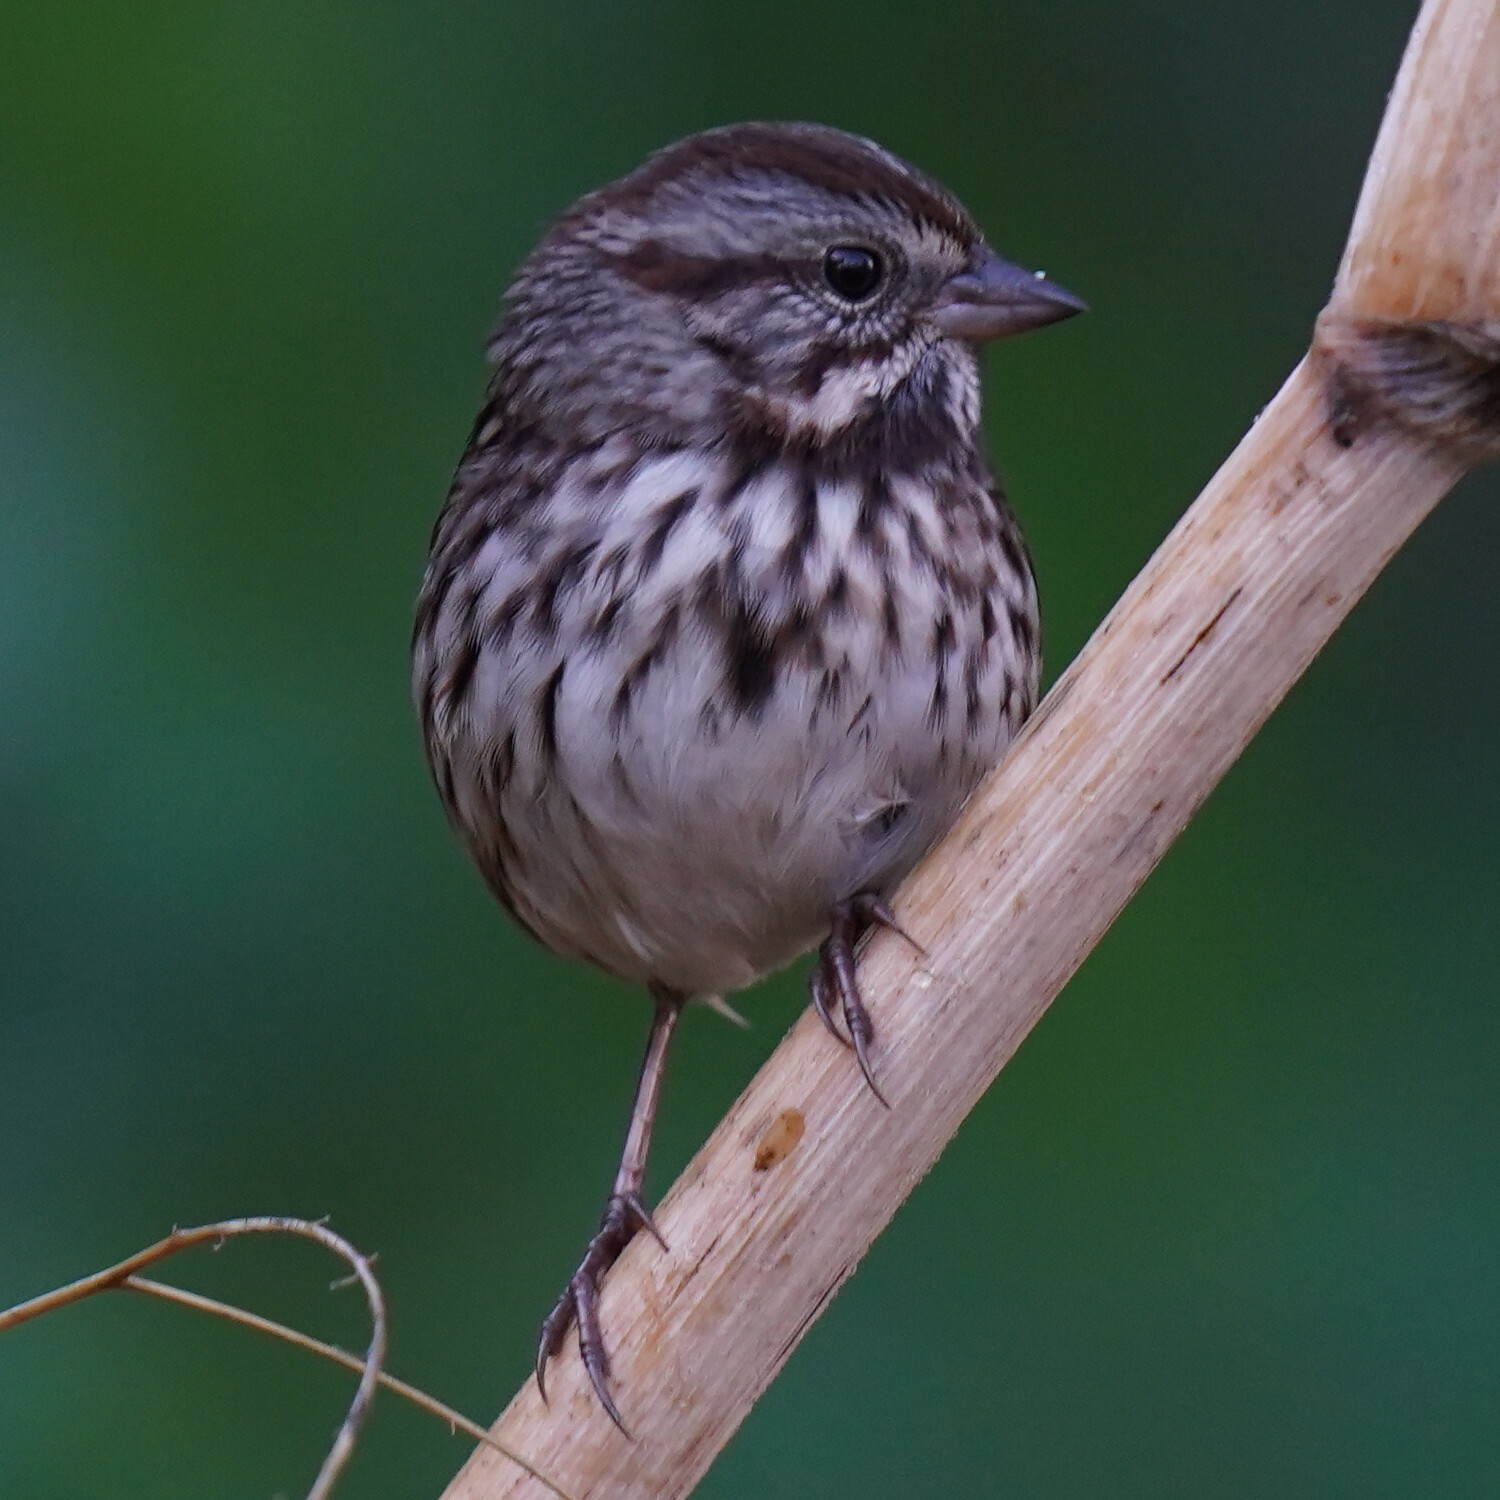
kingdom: Animalia
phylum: Chordata
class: Aves
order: Passeriformes
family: Passerellidae
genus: Melospiza
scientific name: Melospiza melodia
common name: Song sparrow
